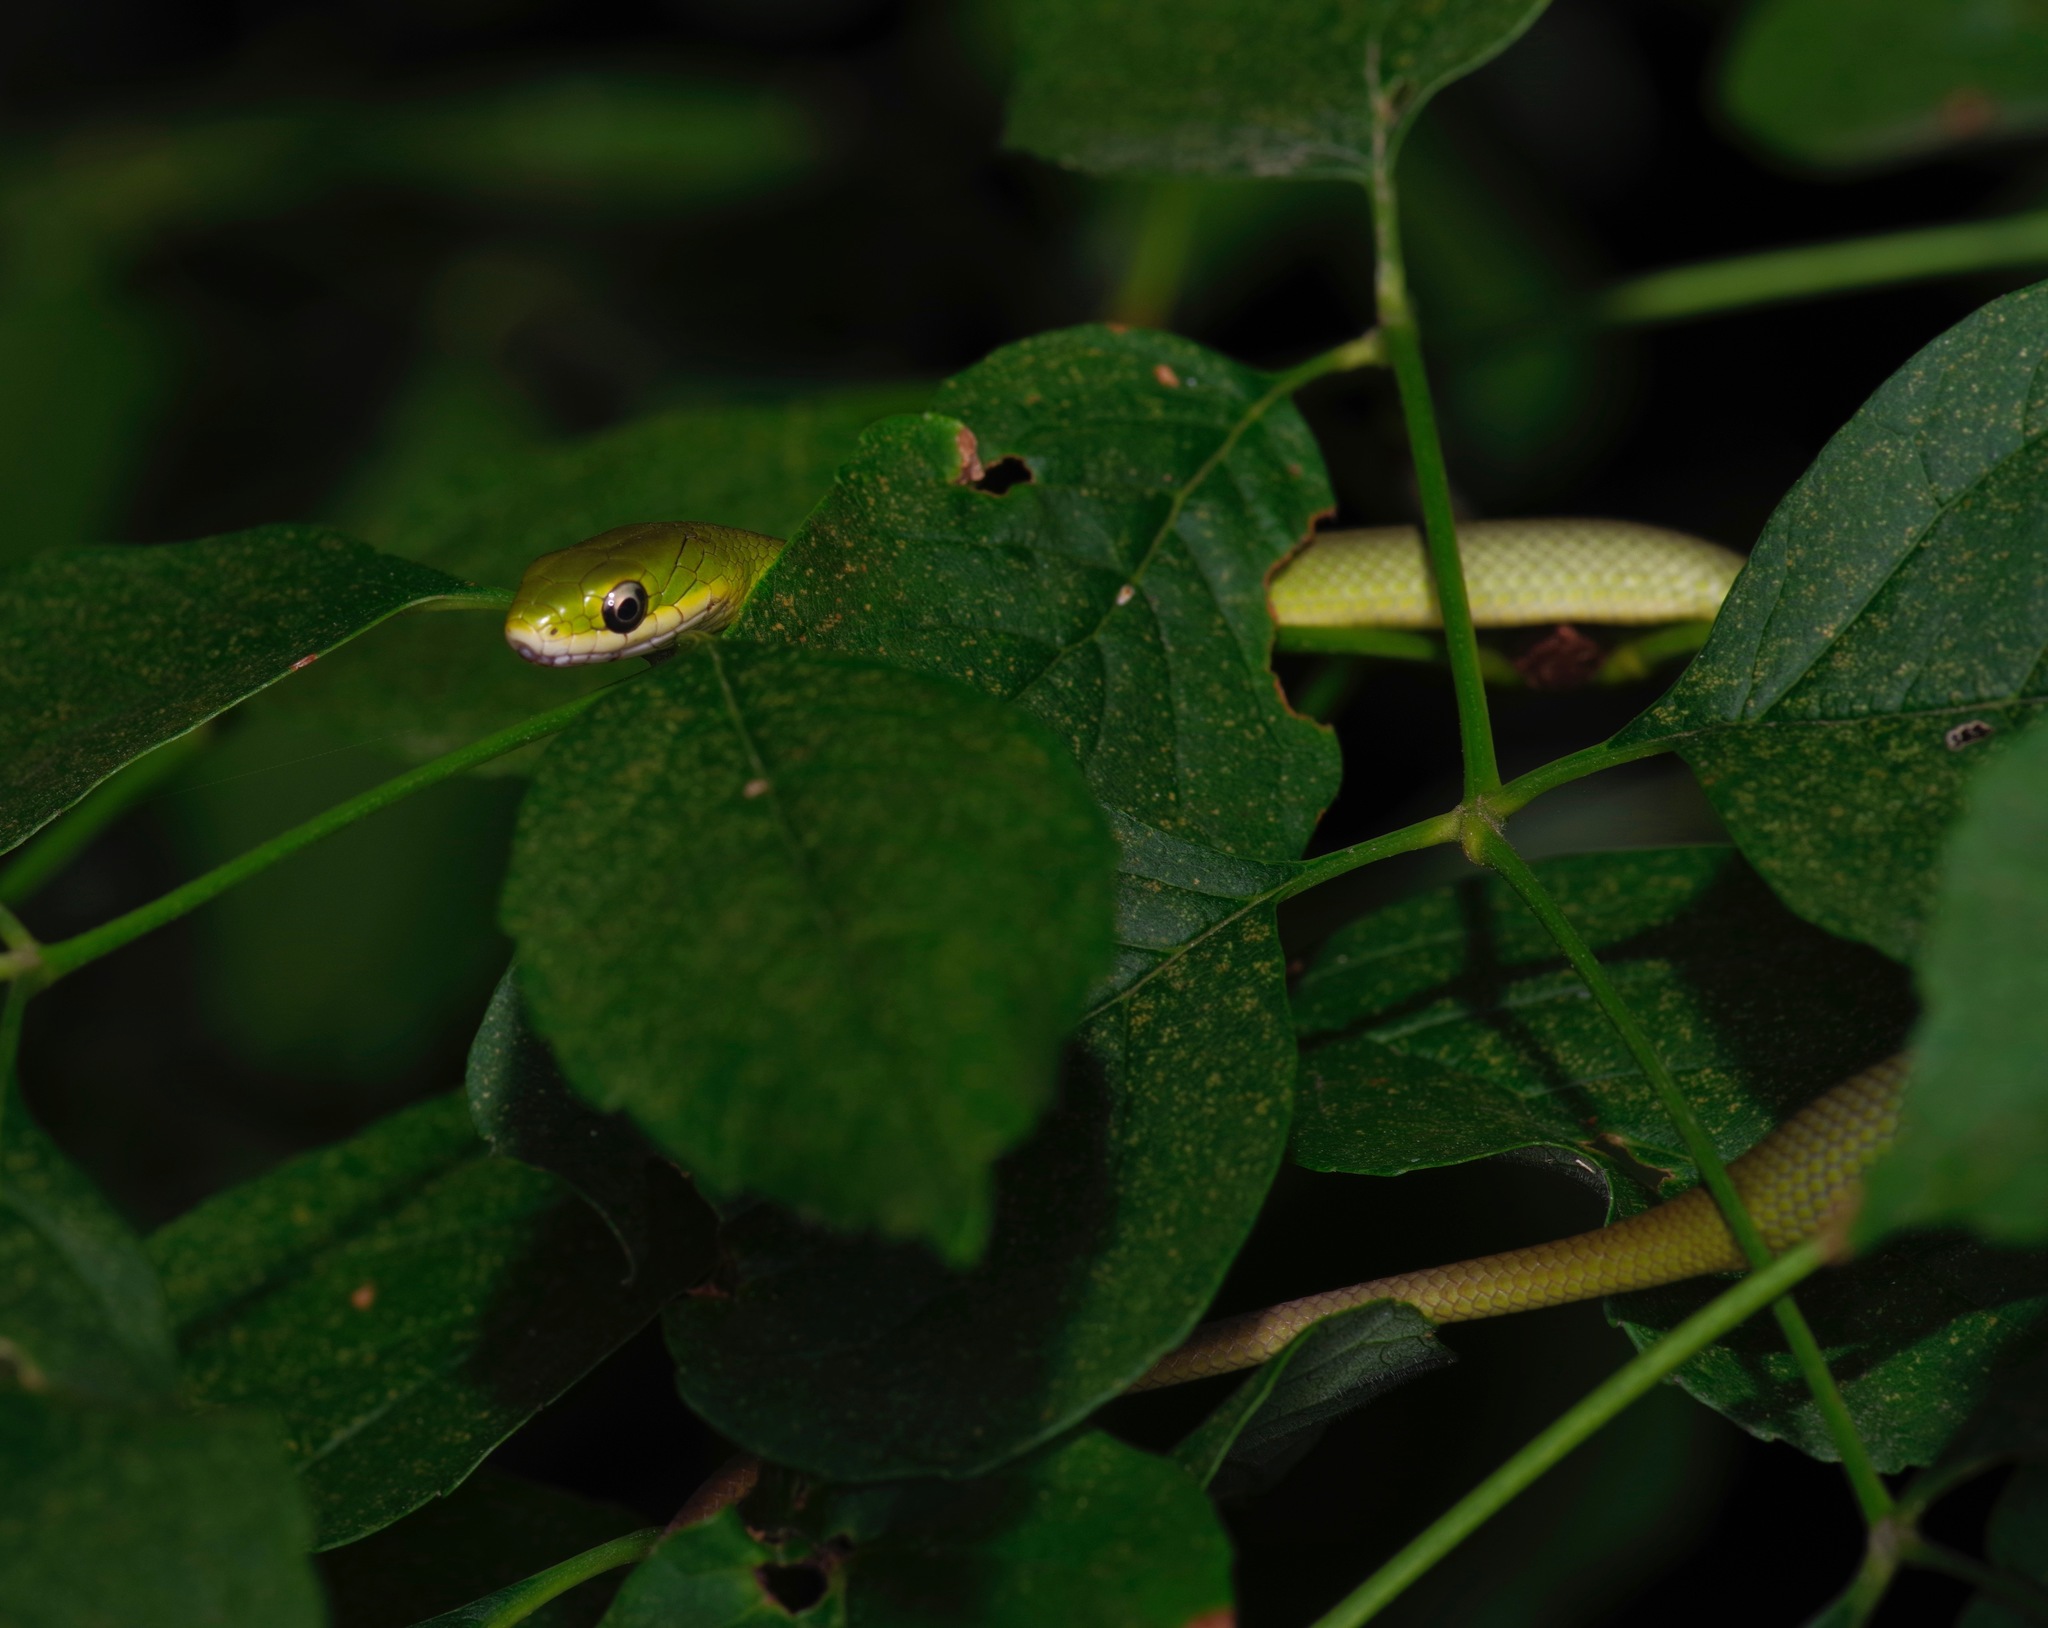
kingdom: Animalia
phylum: Chordata
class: Squamata
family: Colubridae
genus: Opheodrys
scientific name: Opheodrys aestivus
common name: Rough greensnake
